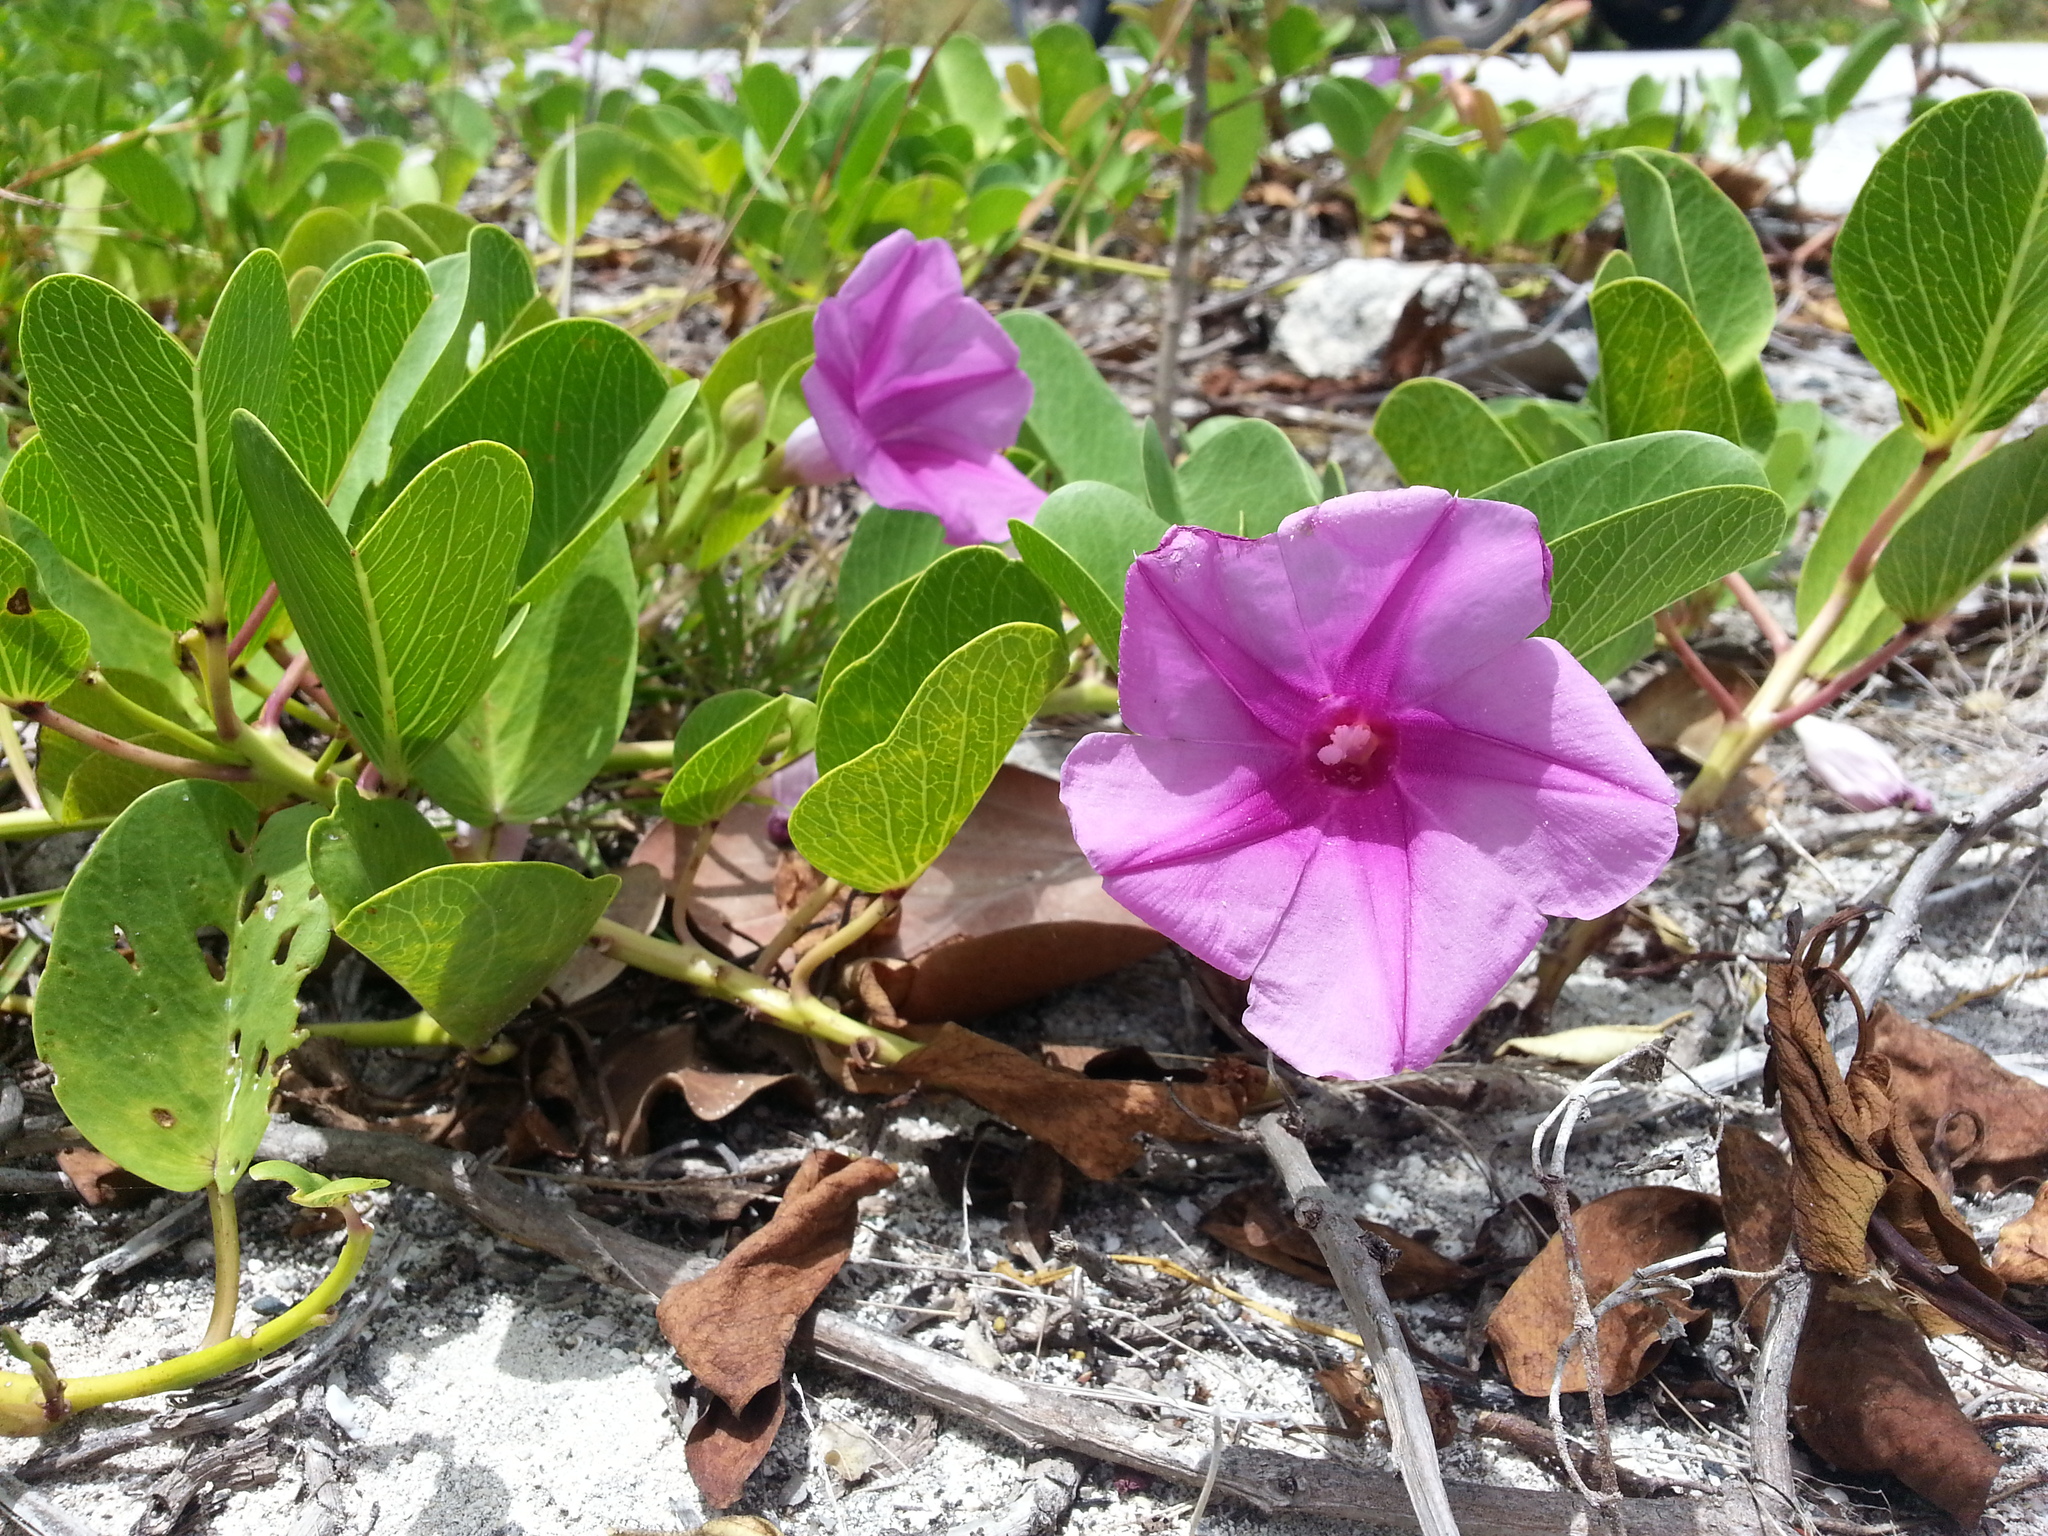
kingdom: Plantae
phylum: Tracheophyta
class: Magnoliopsida
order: Solanales
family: Convolvulaceae
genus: Ipomoea
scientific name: Ipomoea pes-caprae
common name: Beach morning glory
